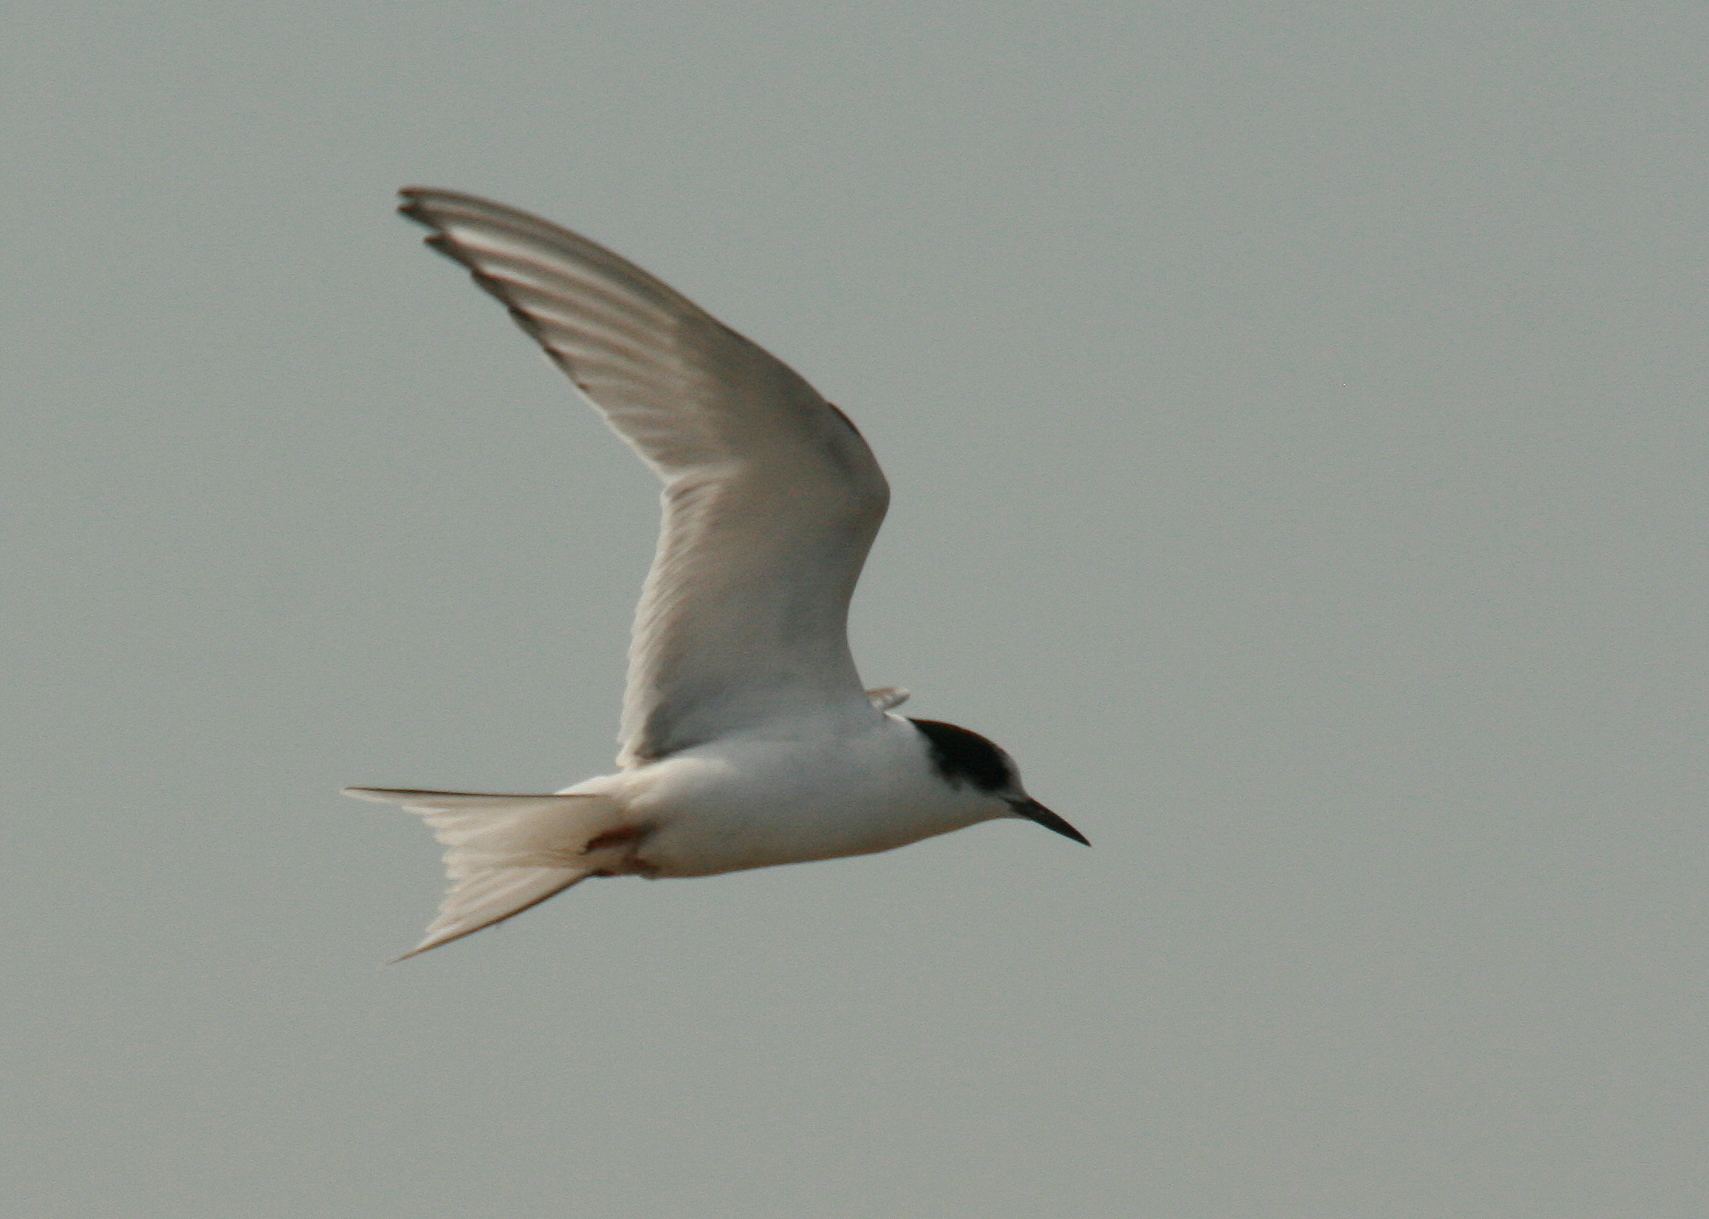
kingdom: Animalia
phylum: Chordata
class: Aves
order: Charadriiformes
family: Laridae
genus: Sterna
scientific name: Sterna paradisaea
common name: Arctic tern
